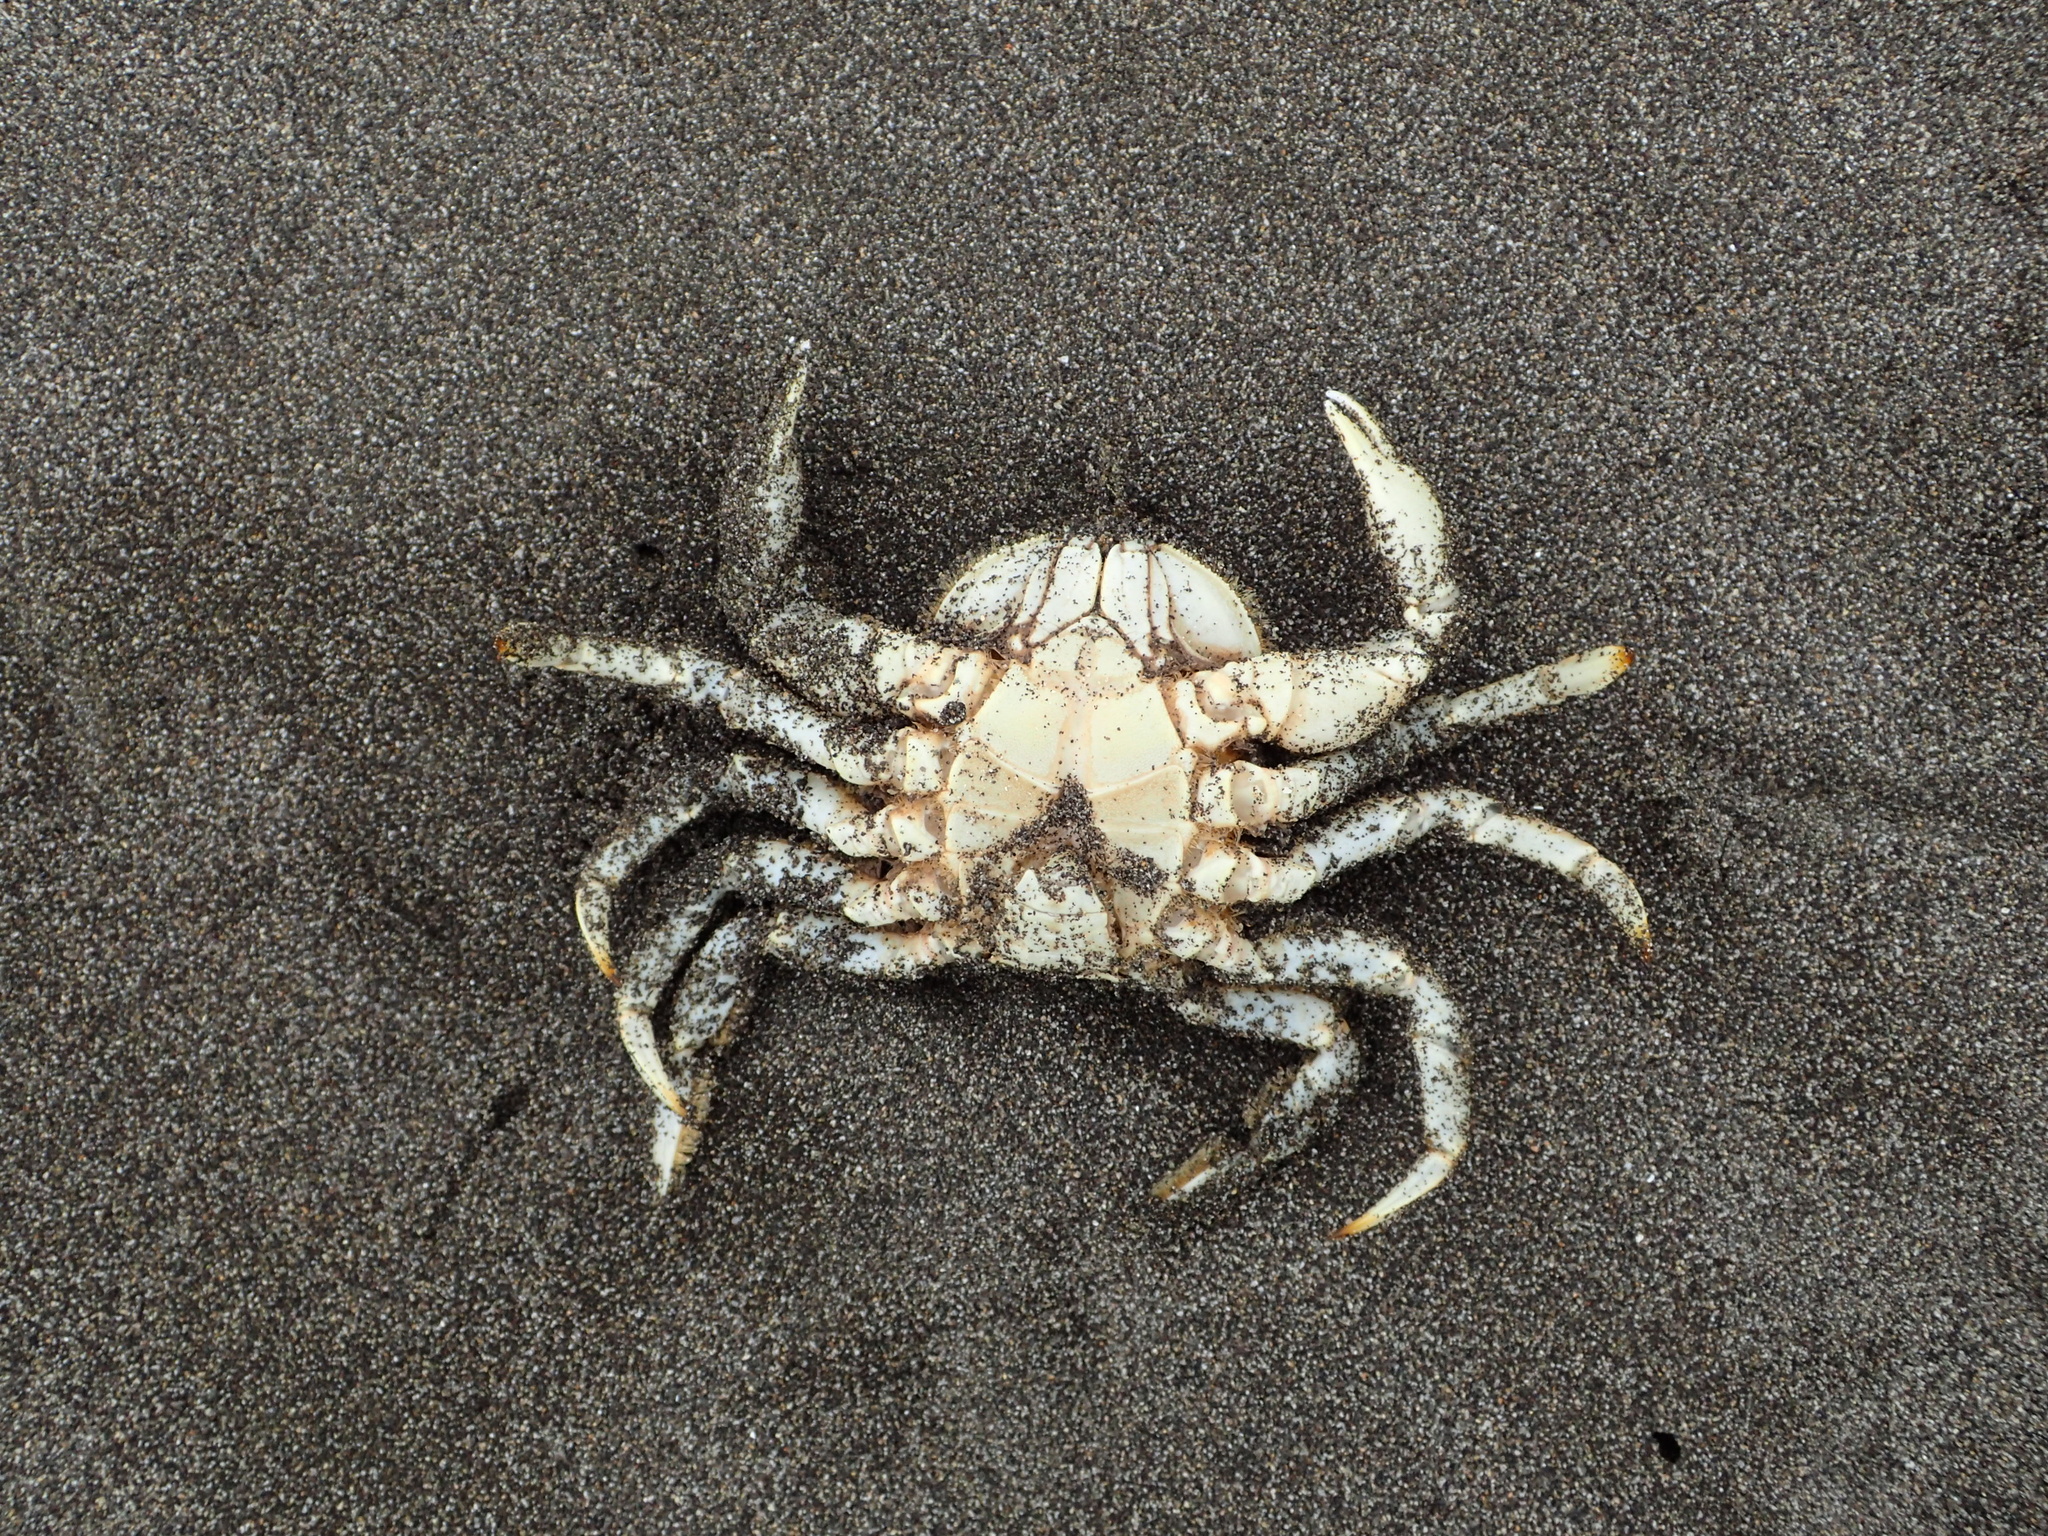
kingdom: Animalia
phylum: Arthropoda
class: Malacostraca
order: Decapoda
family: Belliidae
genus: Bellia
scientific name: Bellia picta
